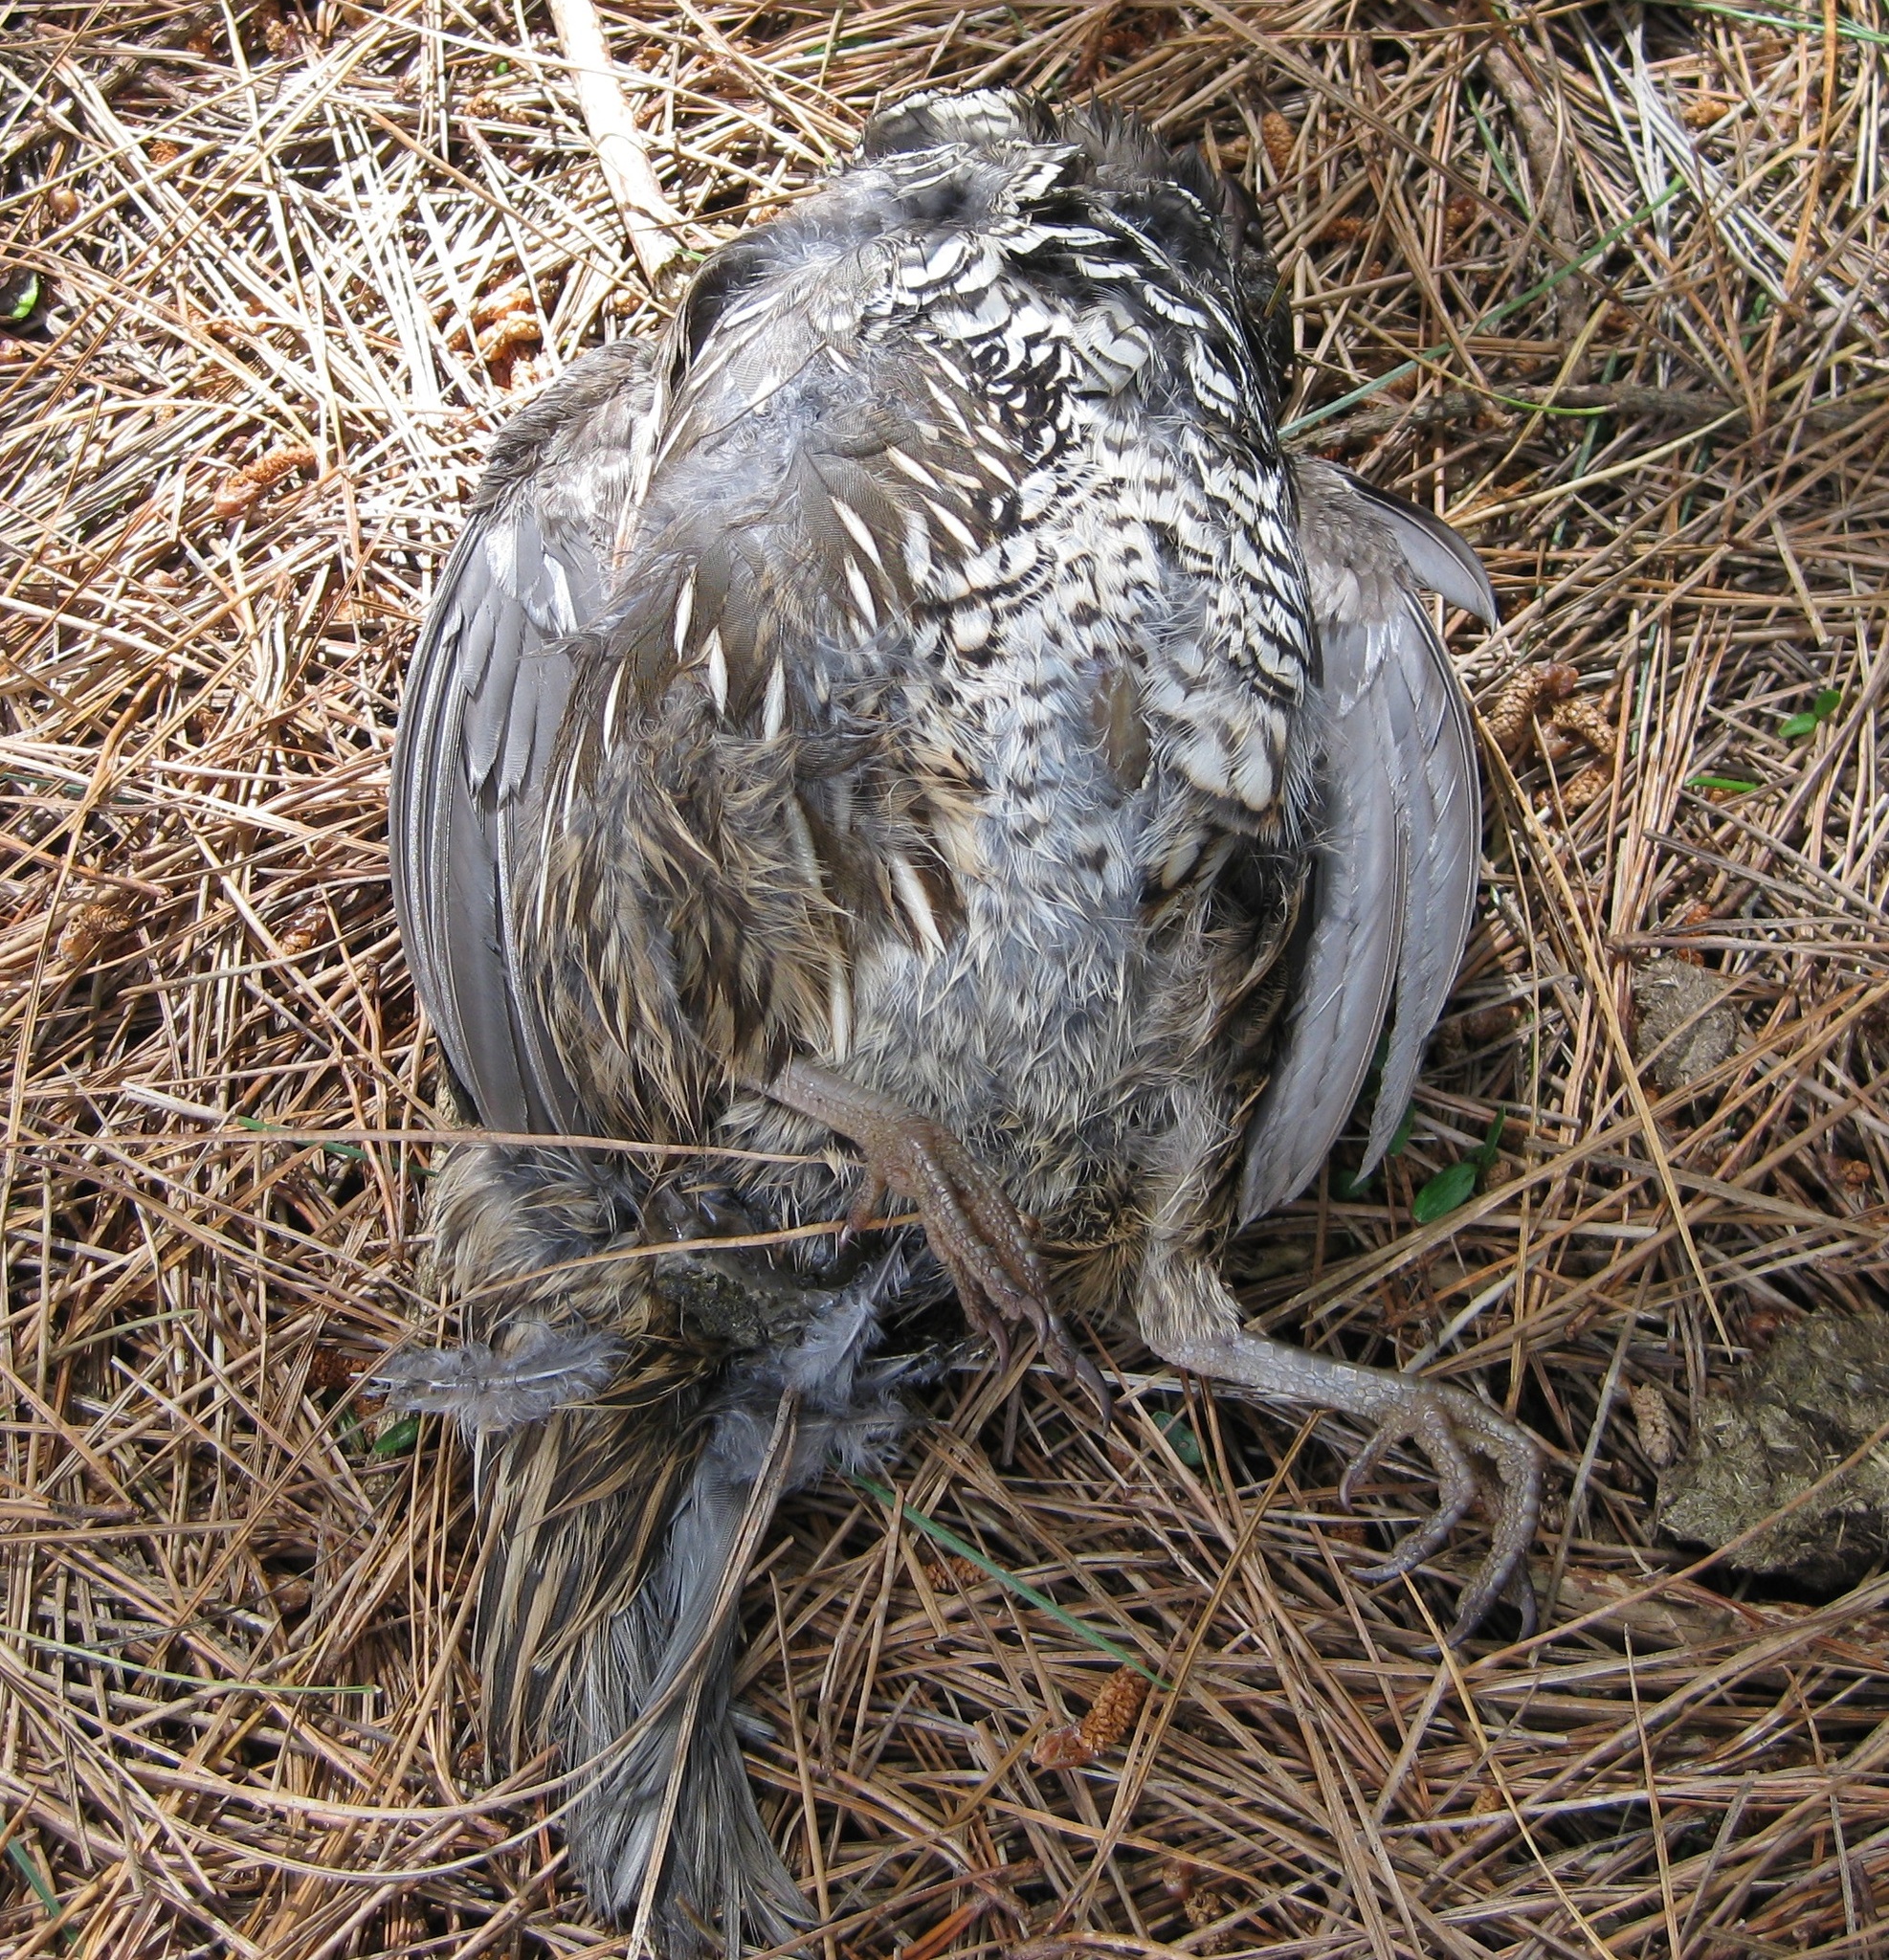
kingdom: Animalia
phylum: Chordata
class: Aves
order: Galliformes
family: Odontophoridae
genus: Callipepla
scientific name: Callipepla californica
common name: California quail
